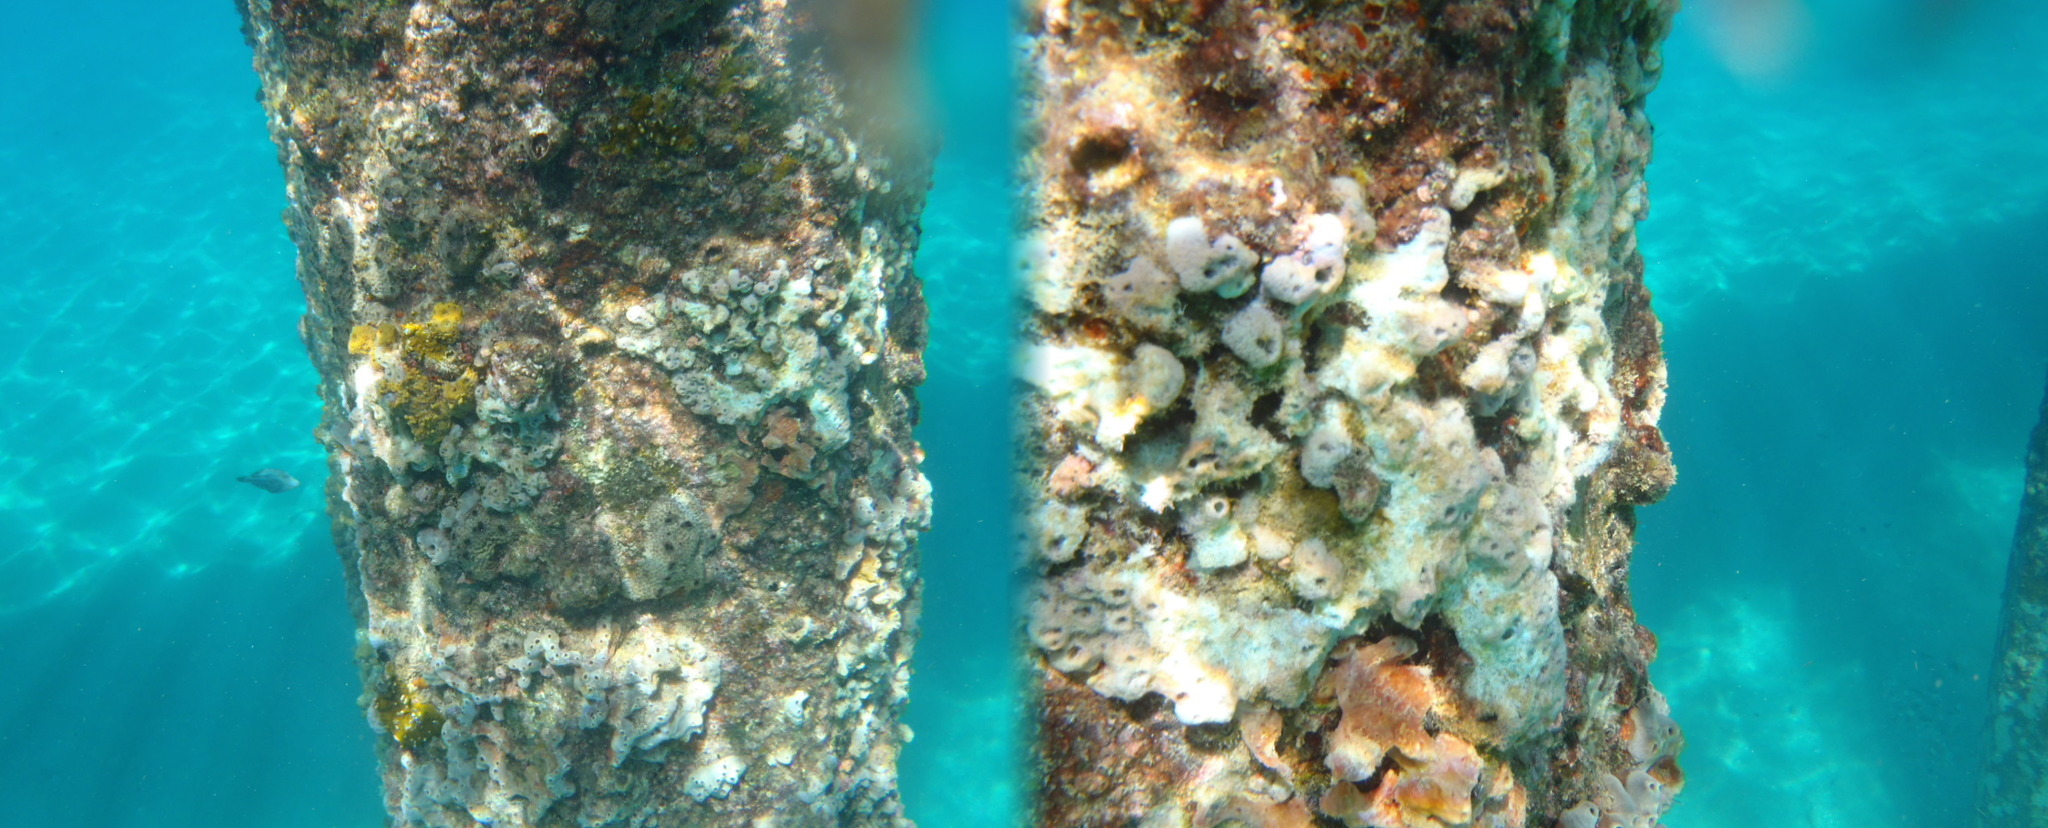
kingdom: Animalia
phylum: Porifera
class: Demospongiae
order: Haplosclerida
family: Chalinidae
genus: Haliclona
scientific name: Haliclona caerulea
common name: Blue caribbean sponge
